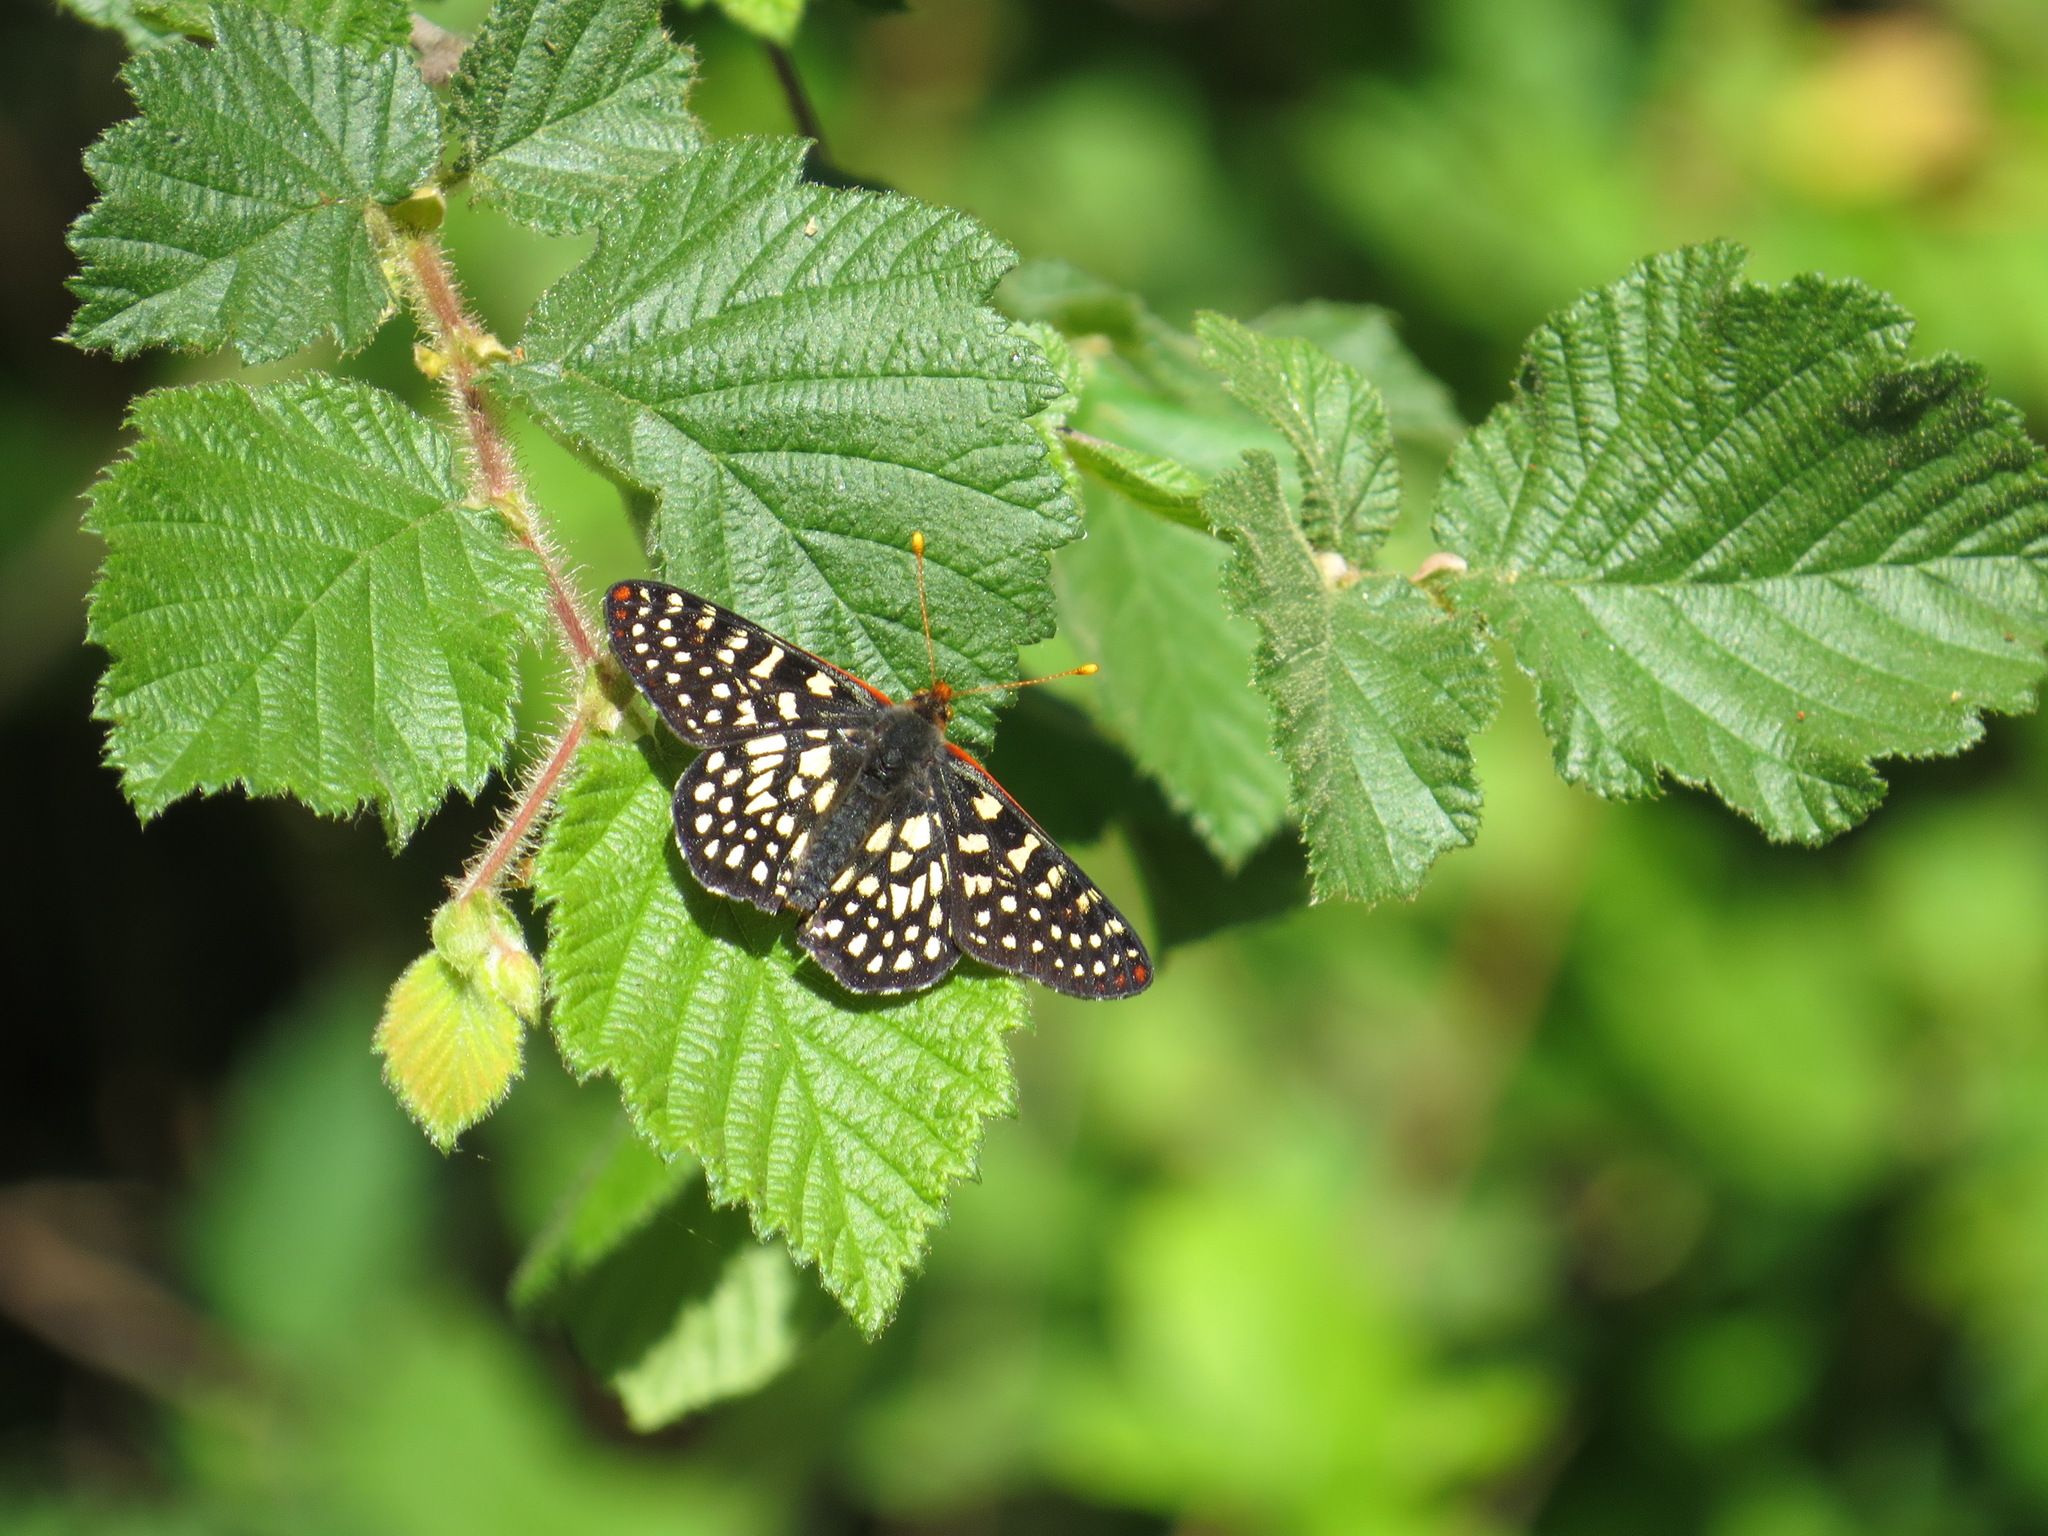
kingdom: Animalia
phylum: Arthropoda
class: Insecta
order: Lepidoptera
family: Nymphalidae
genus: Occidryas
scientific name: Occidryas chalcedona
